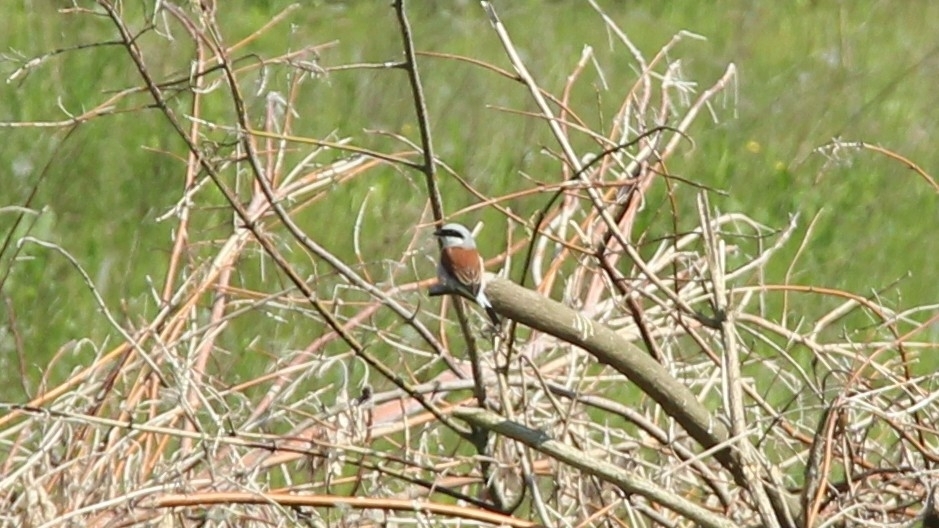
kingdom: Animalia
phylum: Chordata
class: Aves
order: Passeriformes
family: Laniidae
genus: Lanius
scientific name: Lanius collurio
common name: Red-backed shrike
